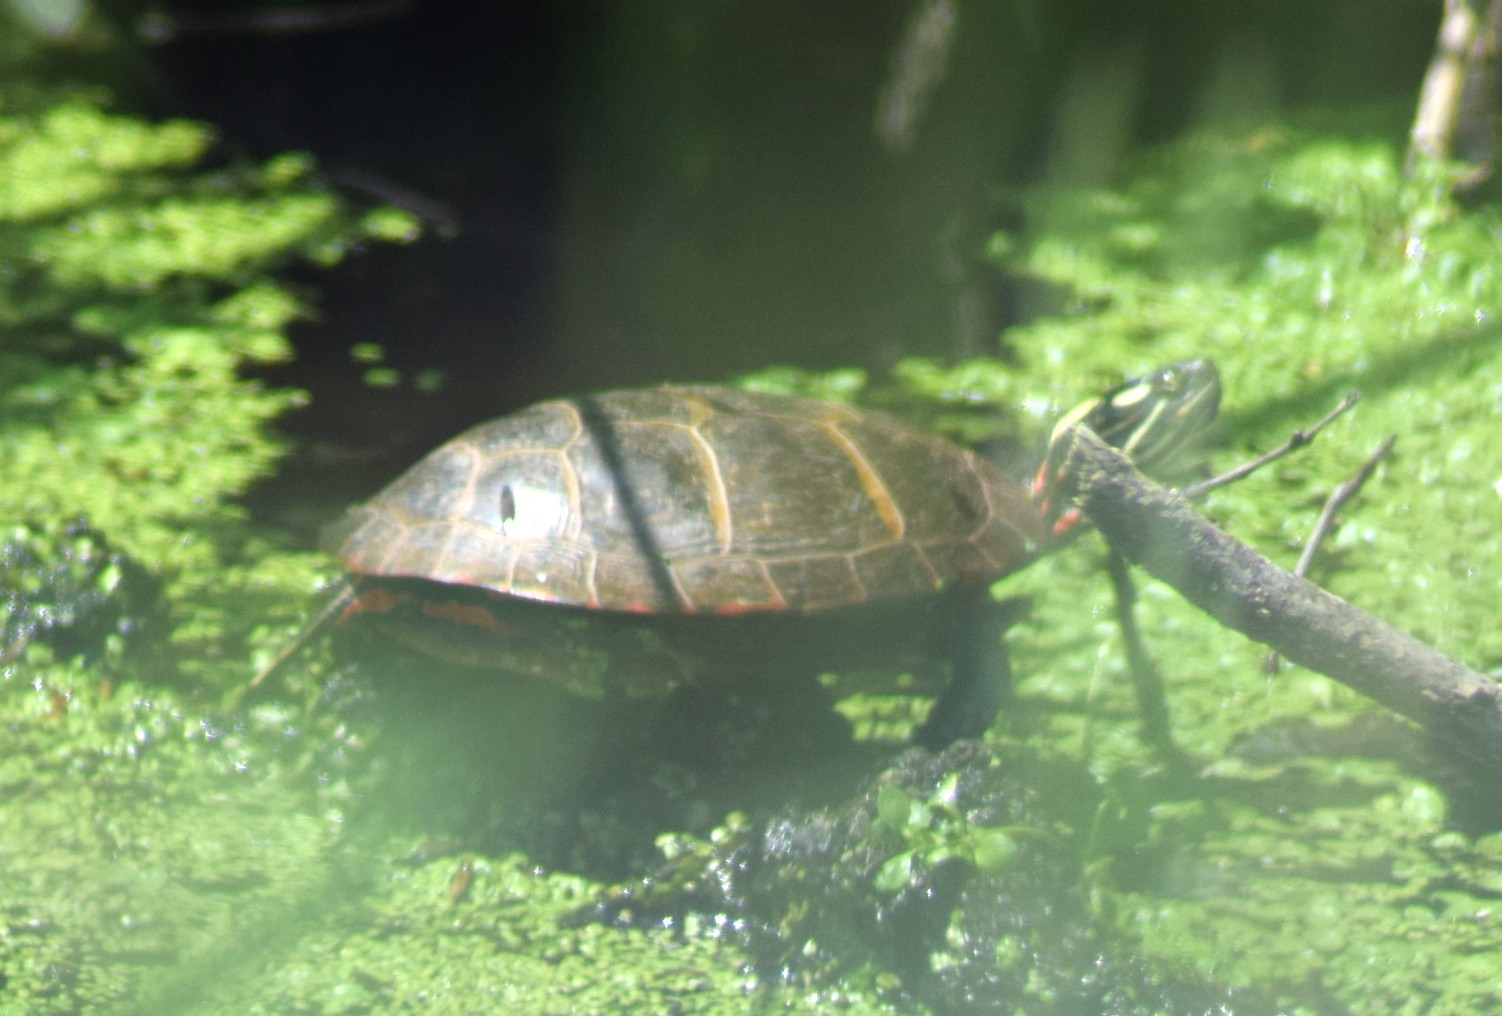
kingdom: Animalia
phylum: Chordata
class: Testudines
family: Emydidae
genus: Chrysemys
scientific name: Chrysemys picta
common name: Painted turtle
